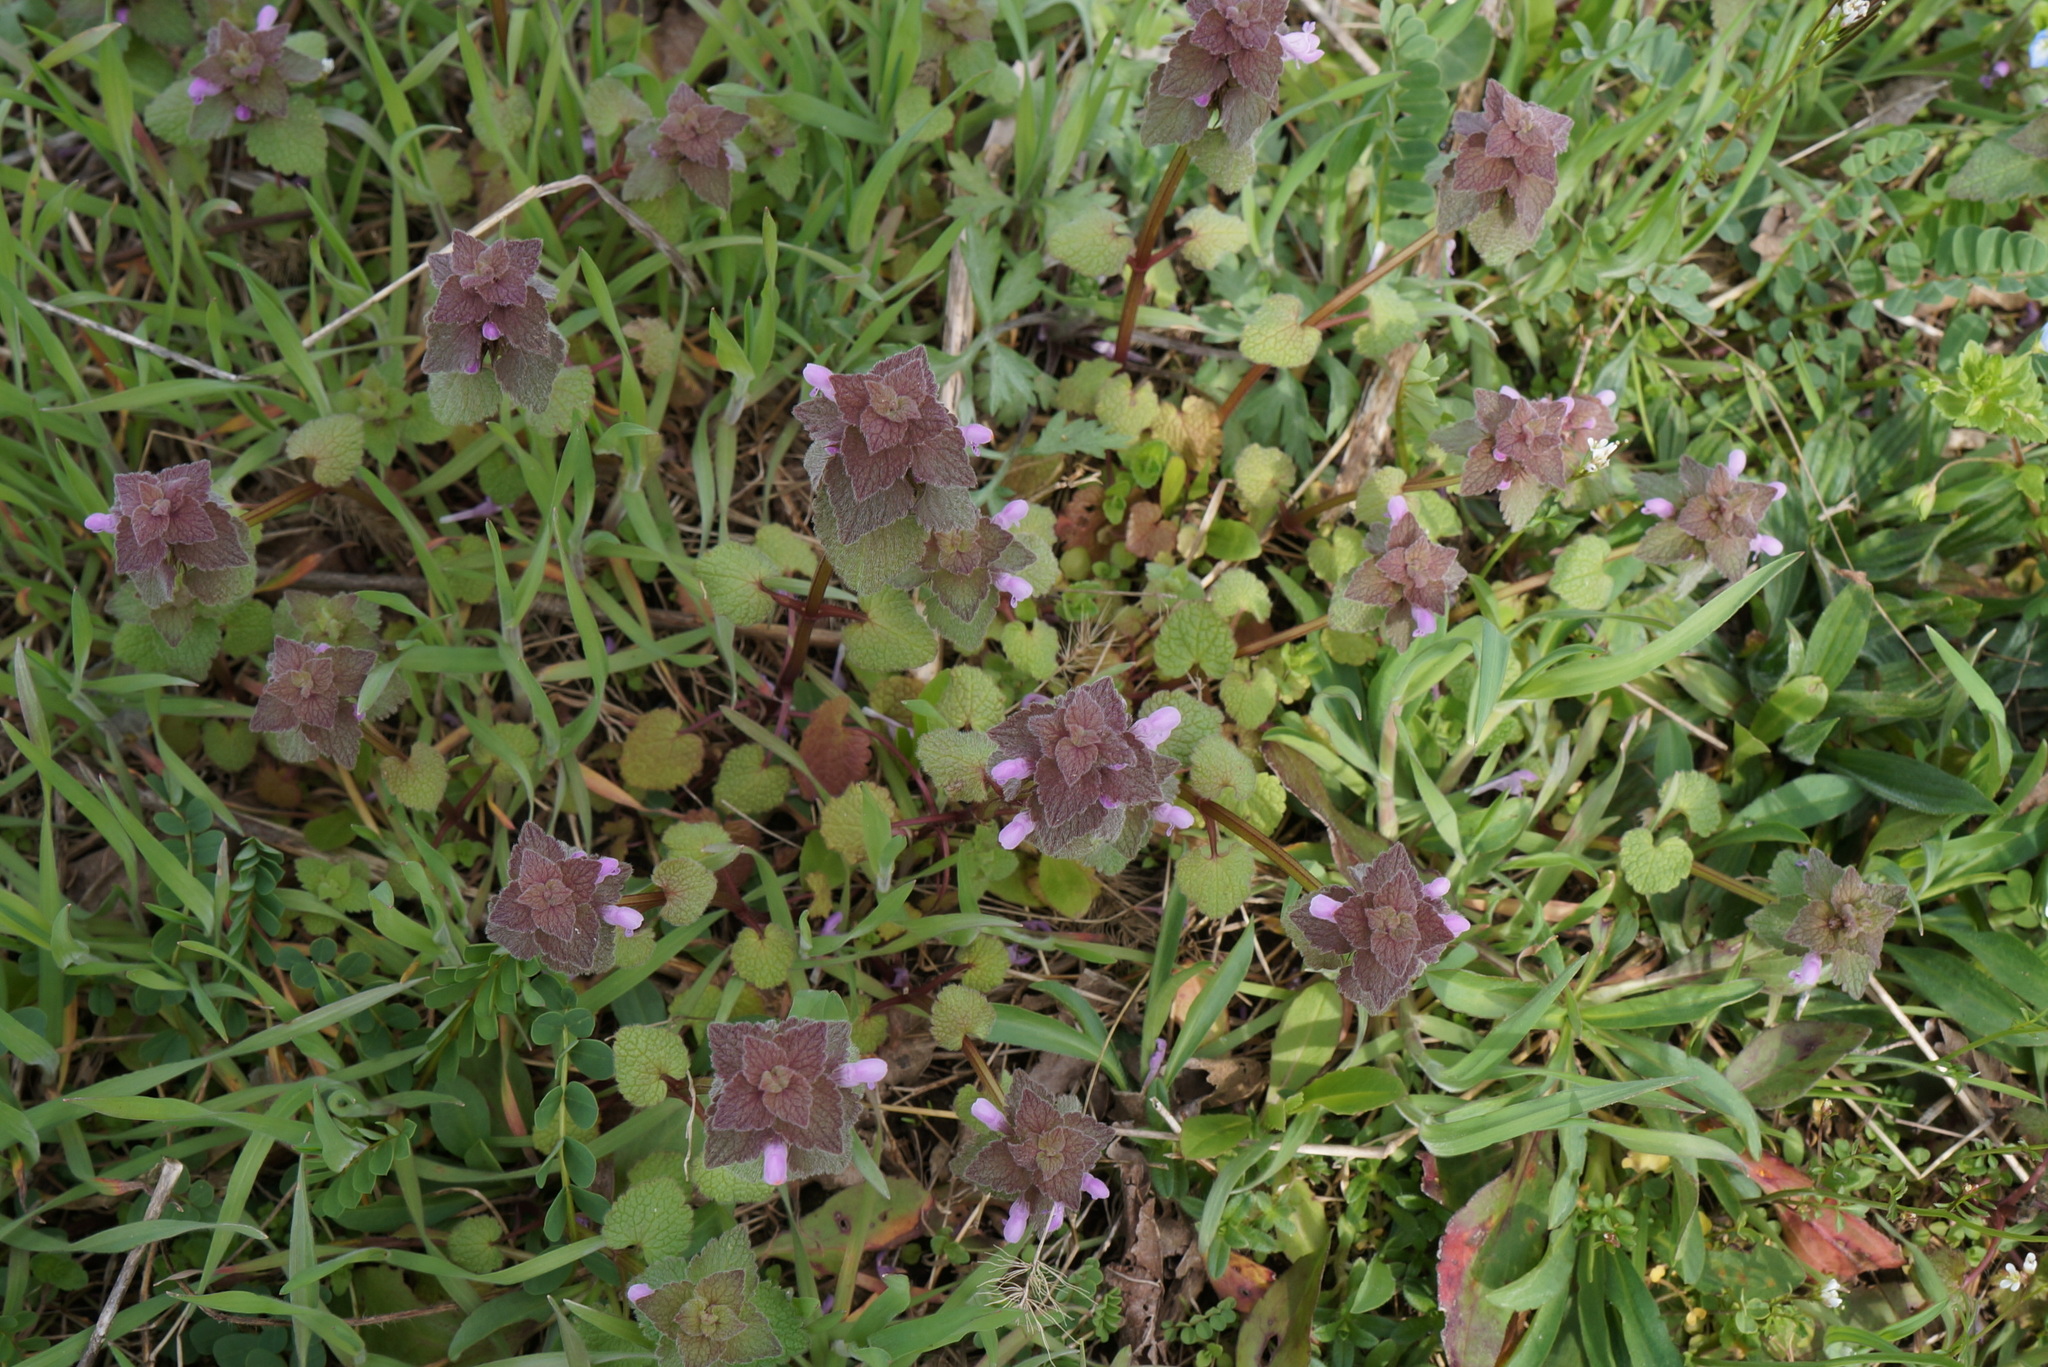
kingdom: Plantae
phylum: Tracheophyta
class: Magnoliopsida
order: Lamiales
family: Lamiaceae
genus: Lamium
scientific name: Lamium purpureum
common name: Red dead-nettle
